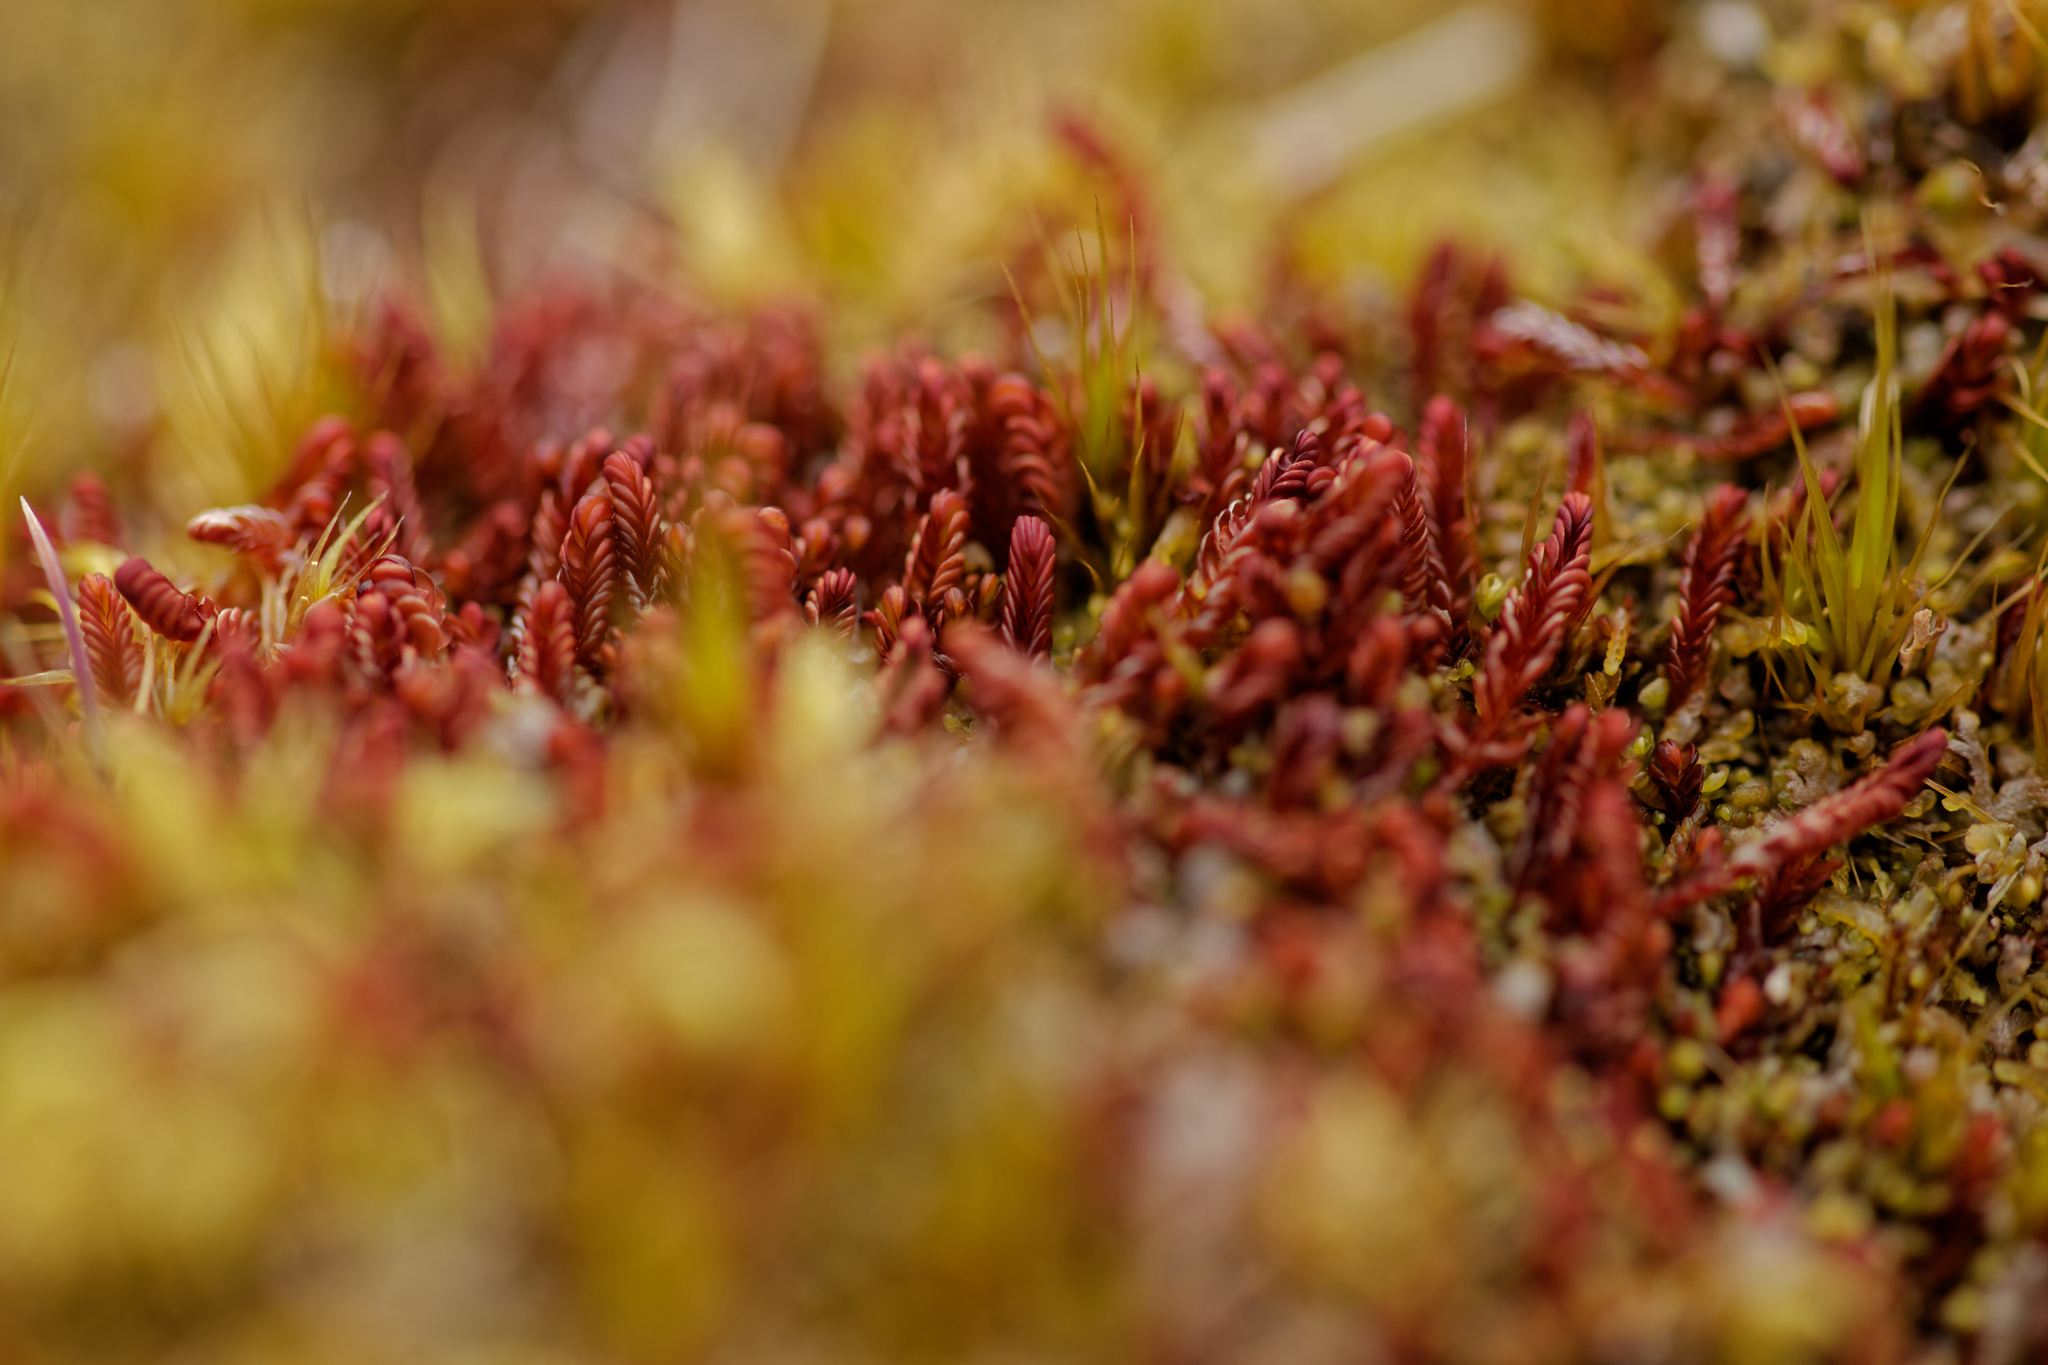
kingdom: Plantae
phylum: Marchantiophyta
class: Jungermanniopsida
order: Jungermanniales
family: Adelanthaceae
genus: Syzygiella
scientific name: Syzygiella colorata
